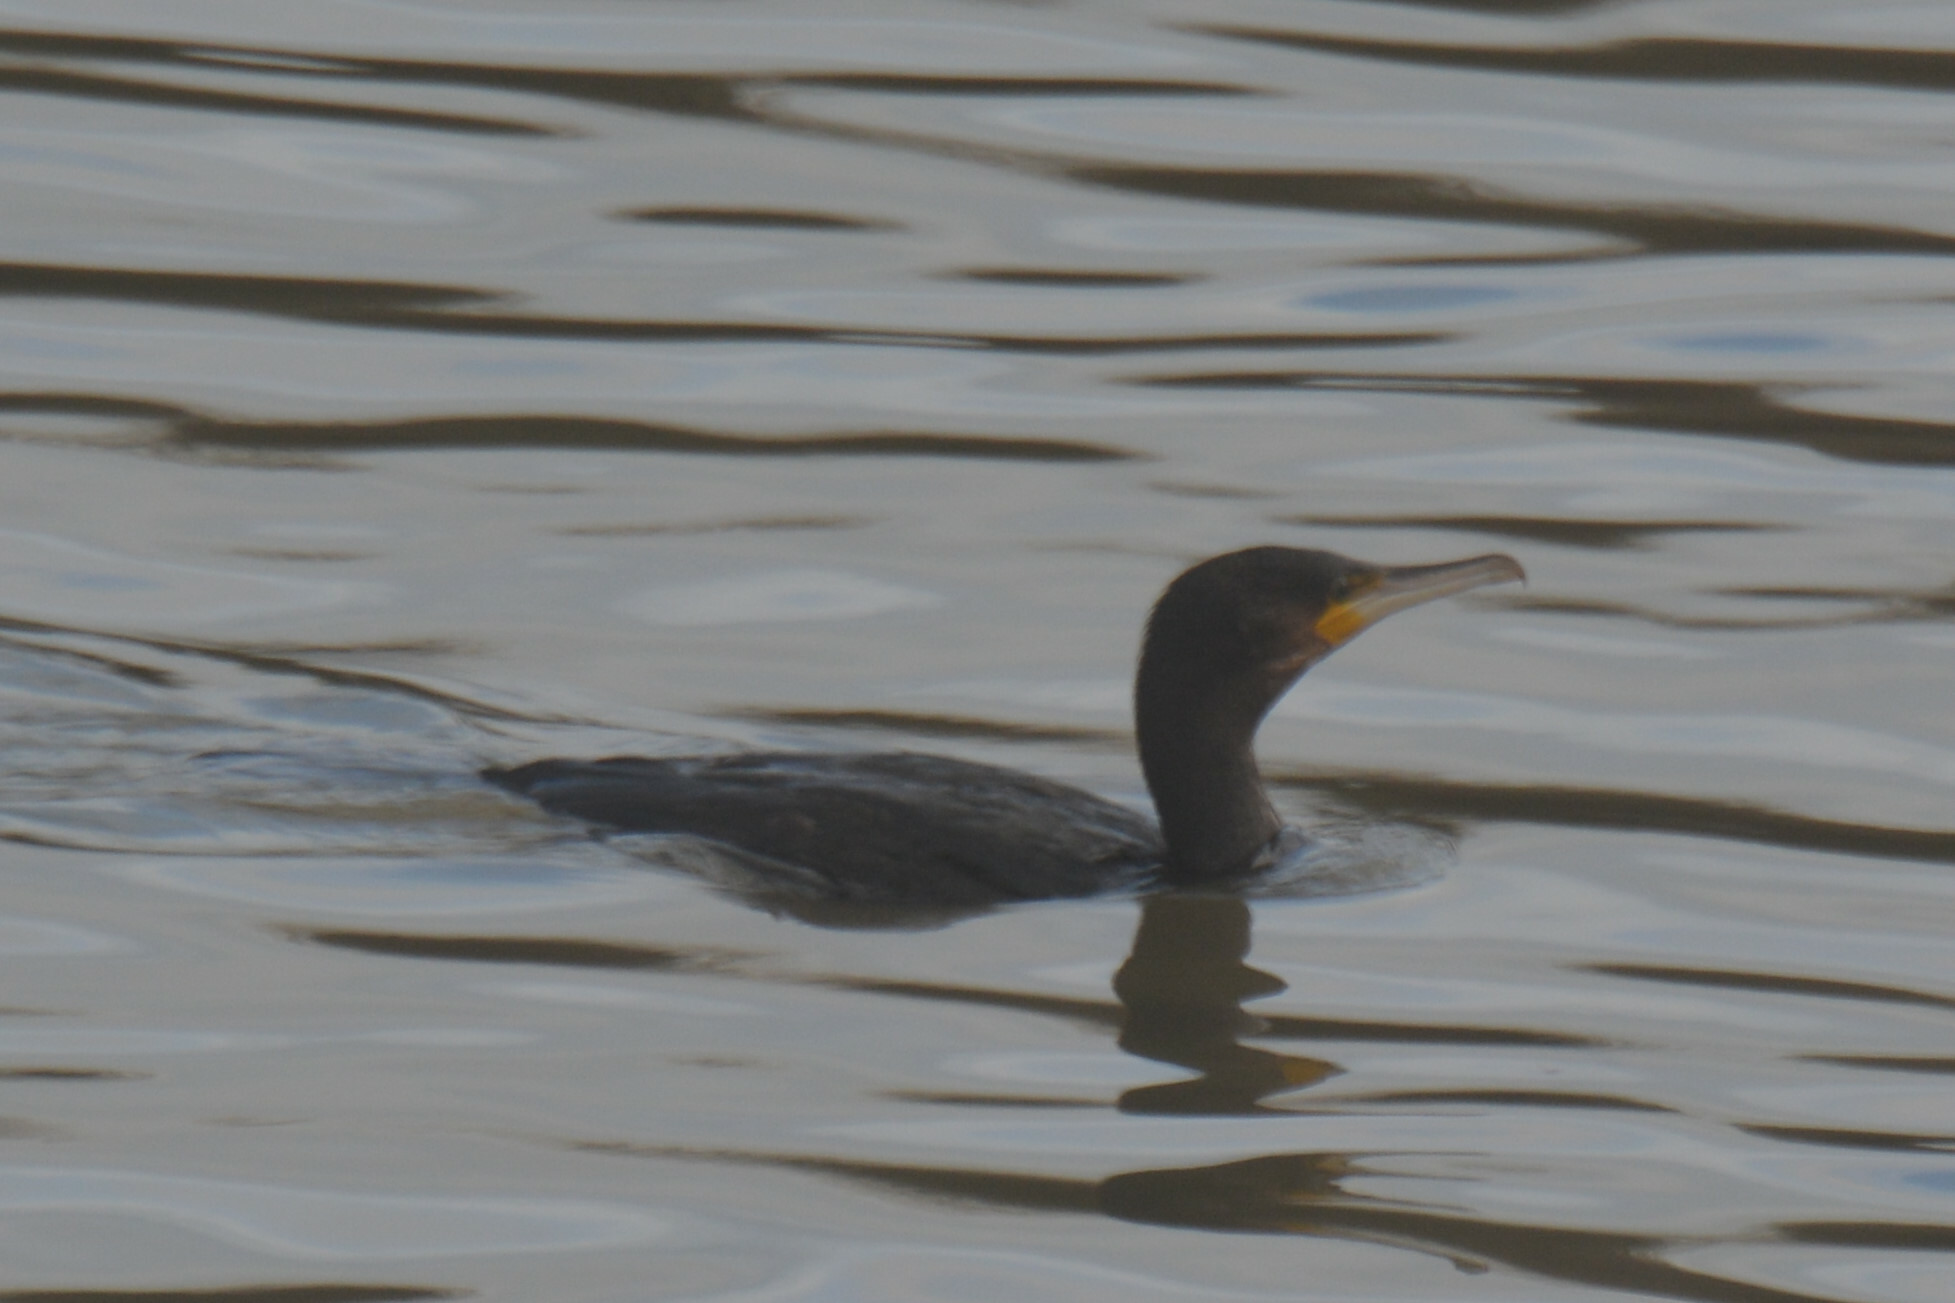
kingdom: Animalia
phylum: Chordata
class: Aves
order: Suliformes
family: Phalacrocoracidae
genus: Phalacrocorax
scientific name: Phalacrocorax carbo
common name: Great cormorant
